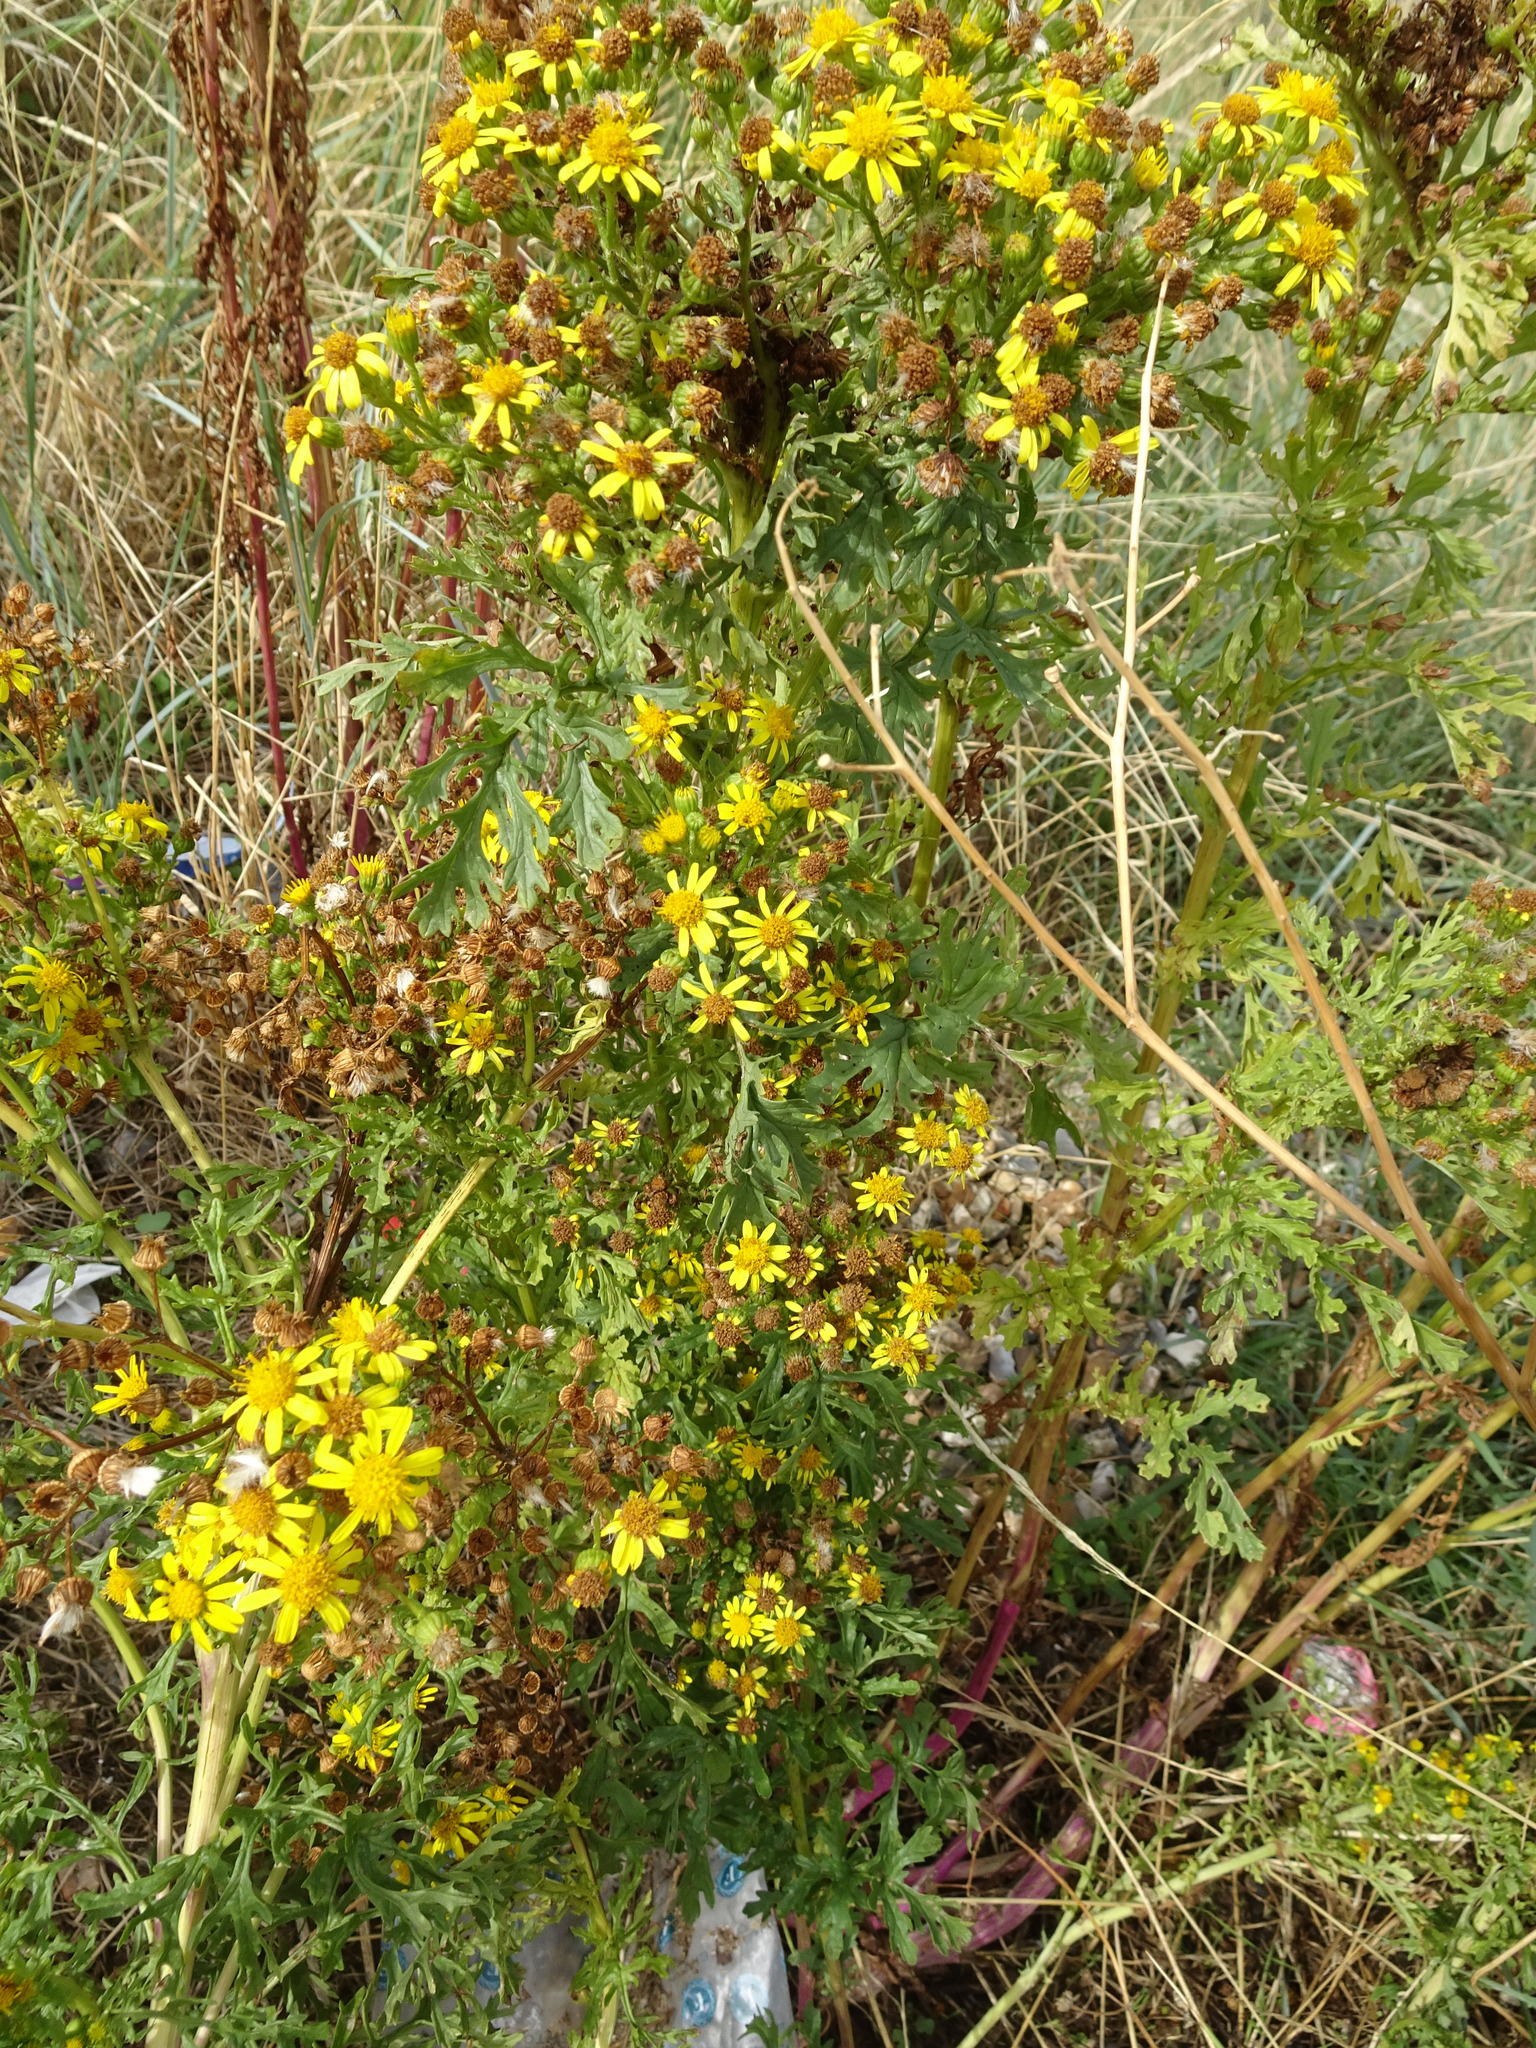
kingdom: Plantae
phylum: Tracheophyta
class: Magnoliopsida
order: Asterales
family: Asteraceae
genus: Jacobaea
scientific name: Jacobaea vulgaris
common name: Stinking willie
